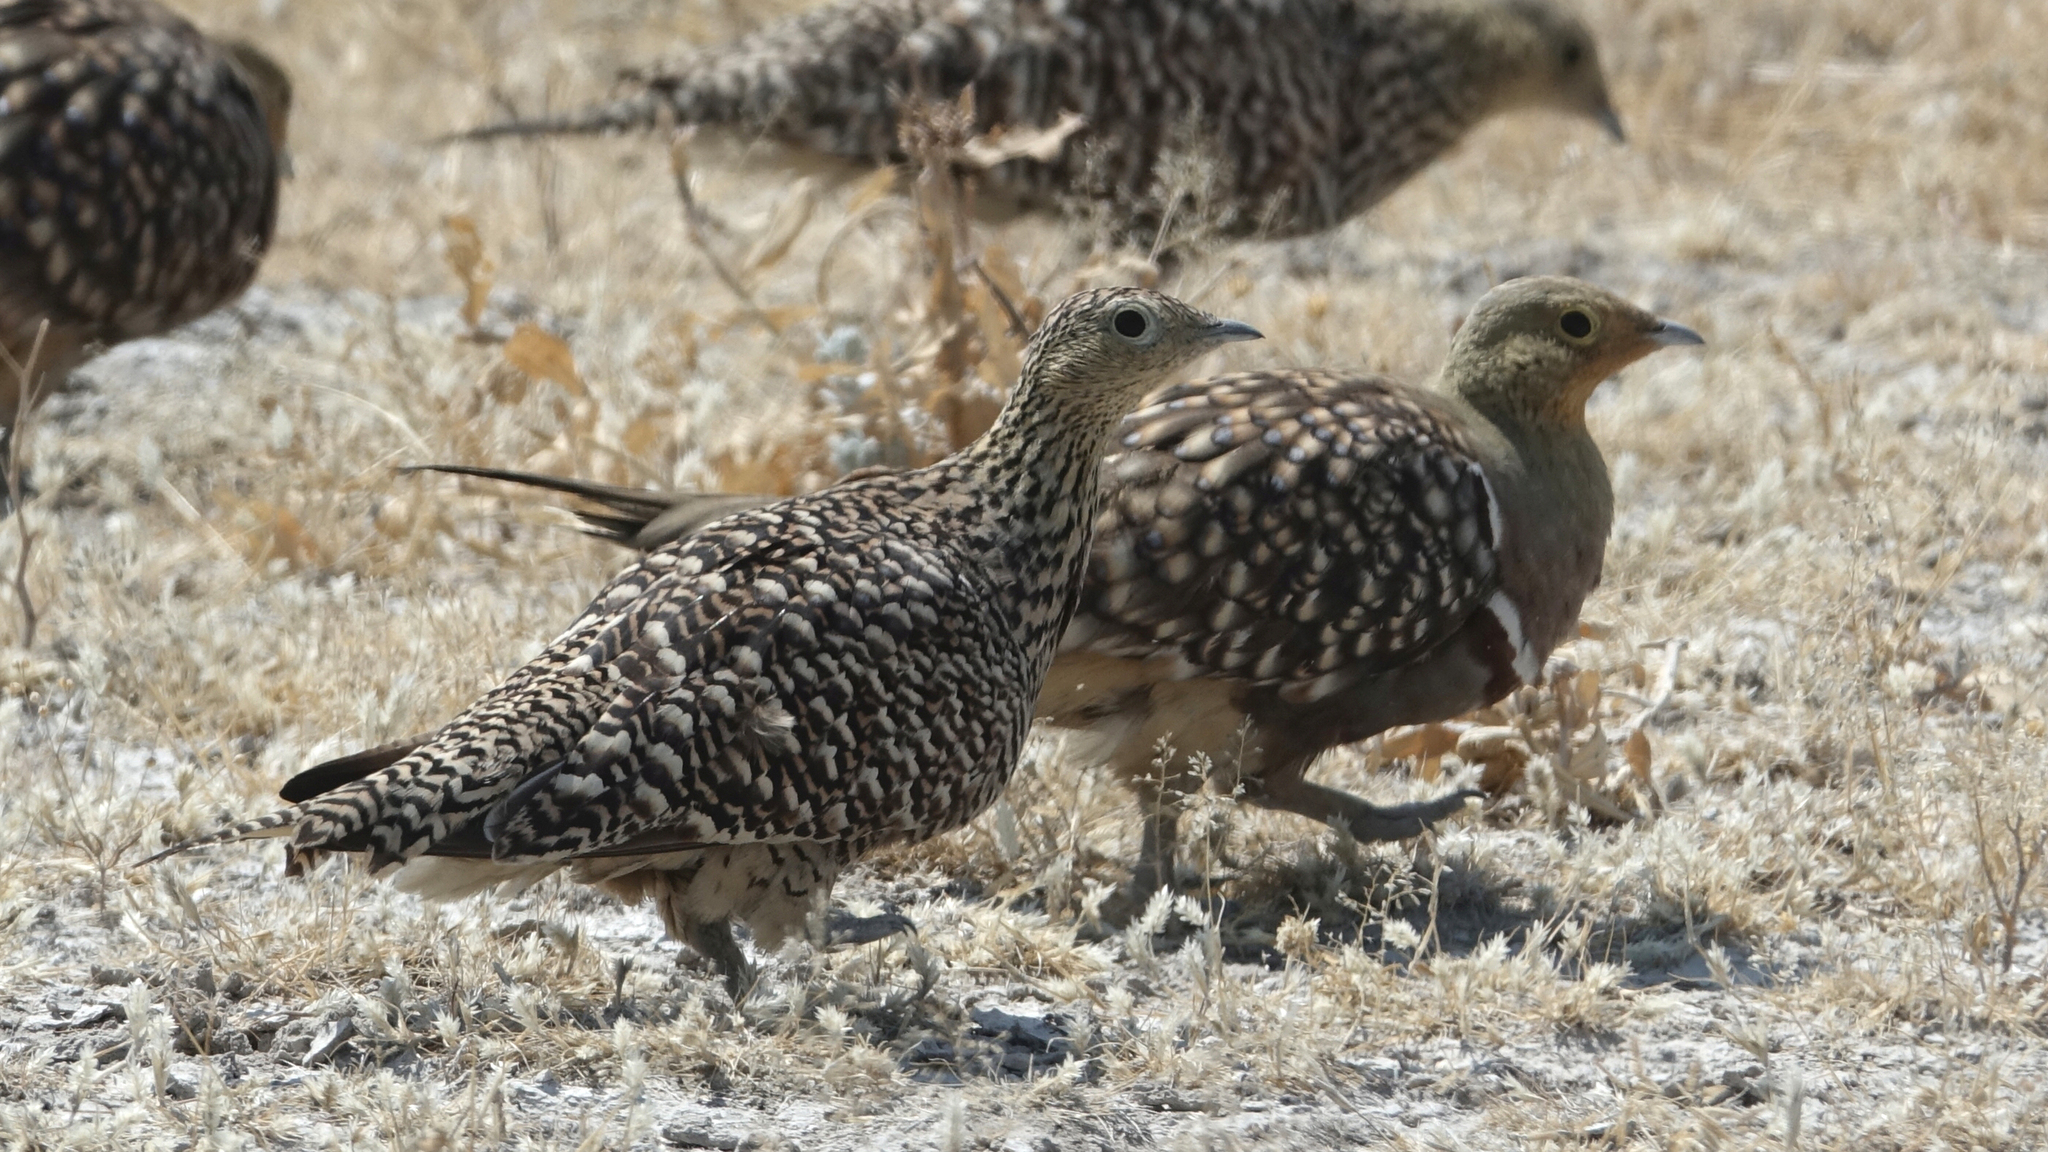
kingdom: Animalia
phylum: Chordata
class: Aves
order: Pteroclidiformes
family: Pteroclididae
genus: Pterocles
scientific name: Pterocles namaqua
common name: Namaqua sandgrouse
